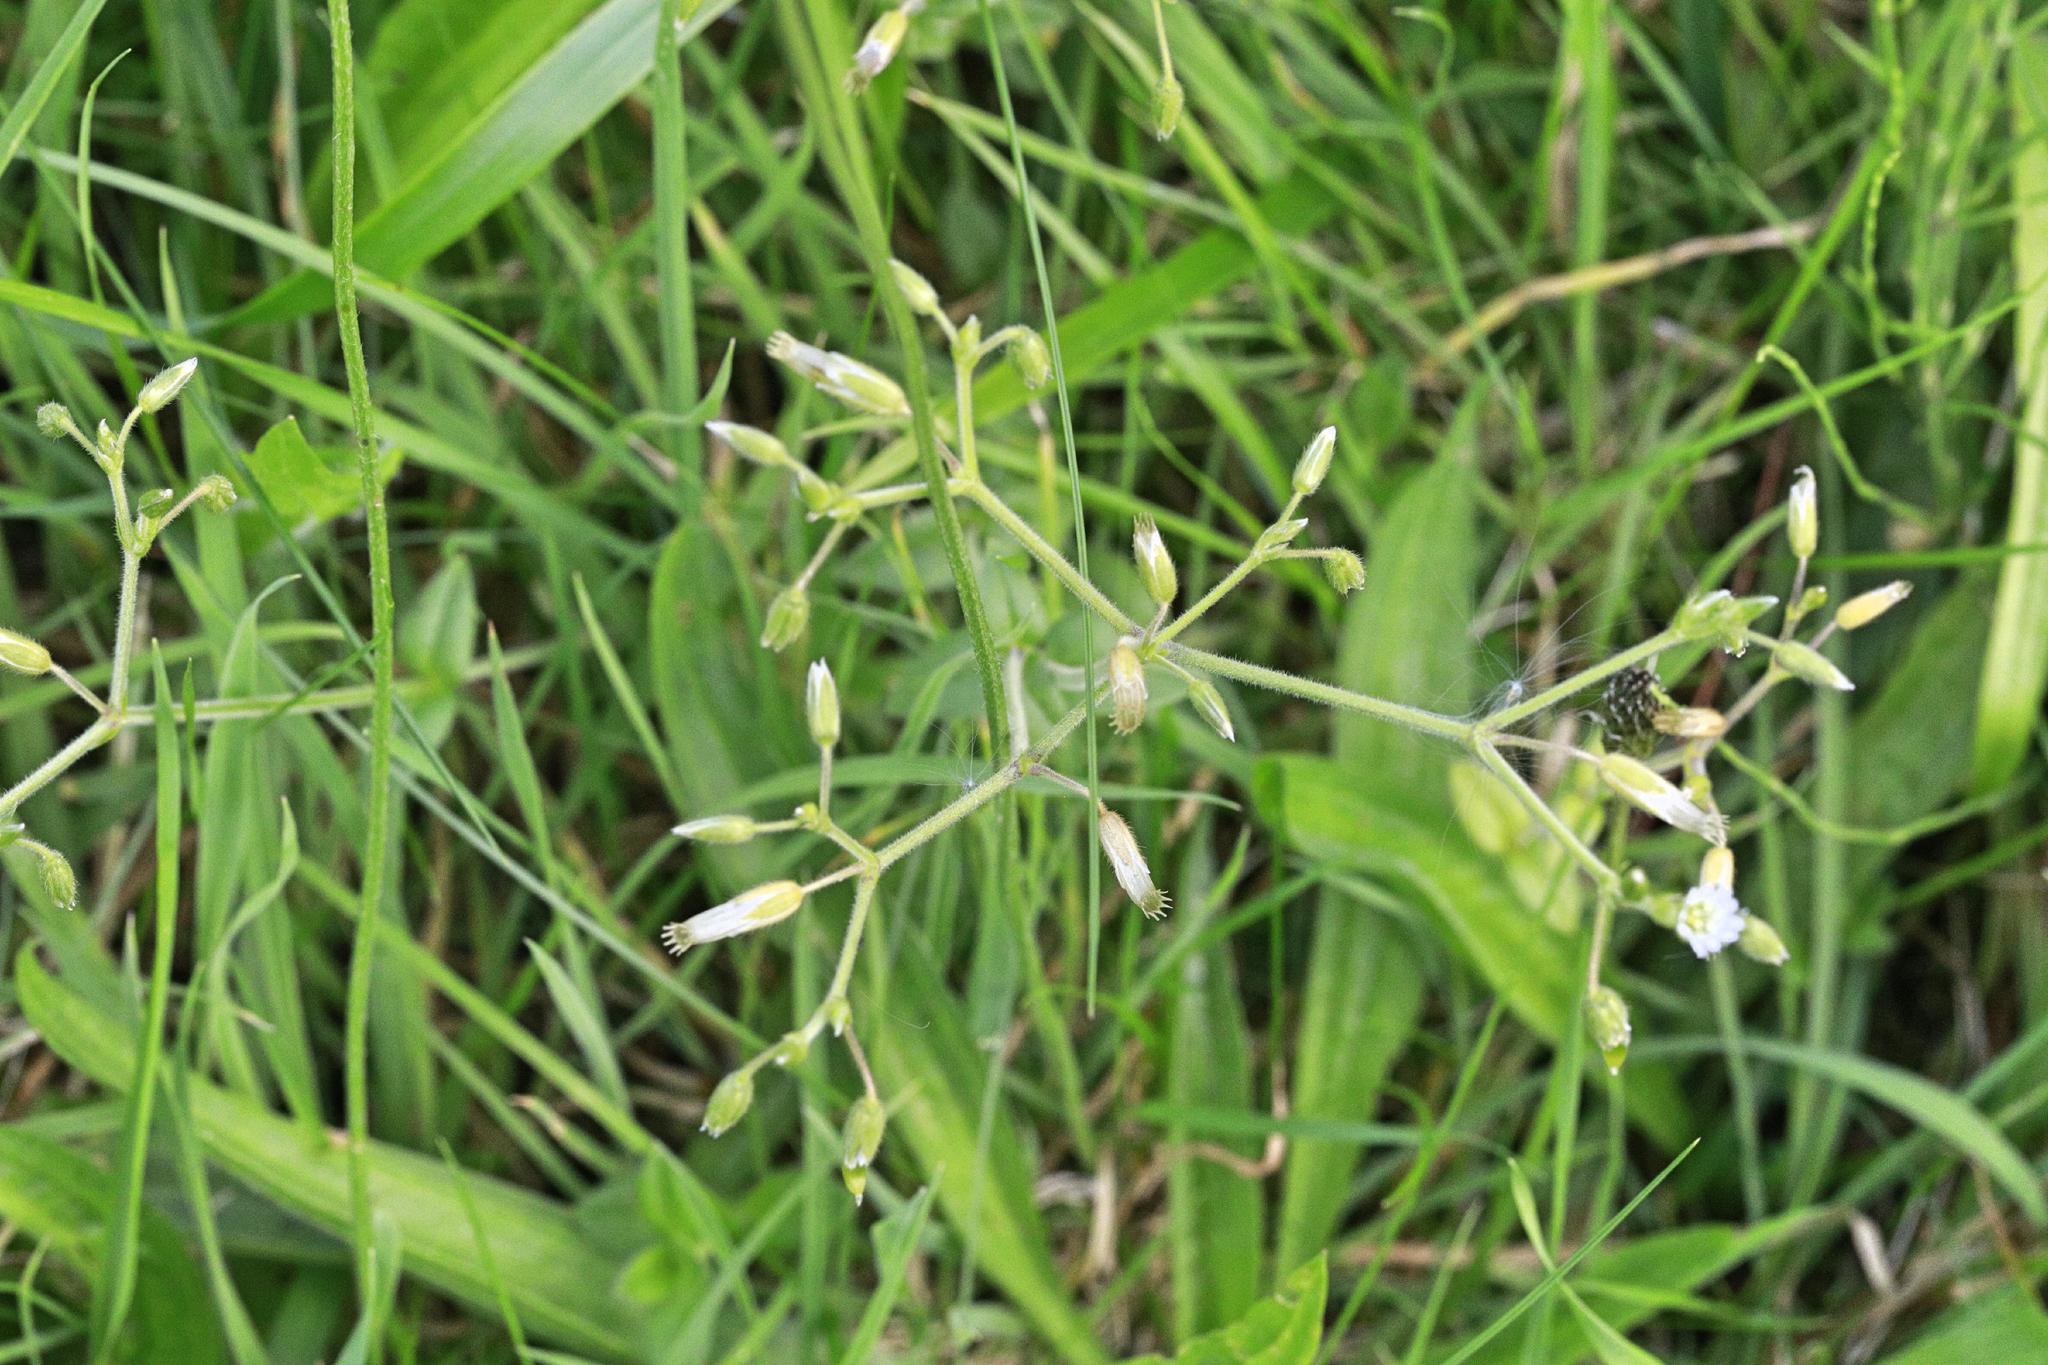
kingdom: Plantae
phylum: Tracheophyta
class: Magnoliopsida
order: Caryophyllales
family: Caryophyllaceae
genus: Cerastium
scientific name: Cerastium fontanum
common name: Common mouse-ear
